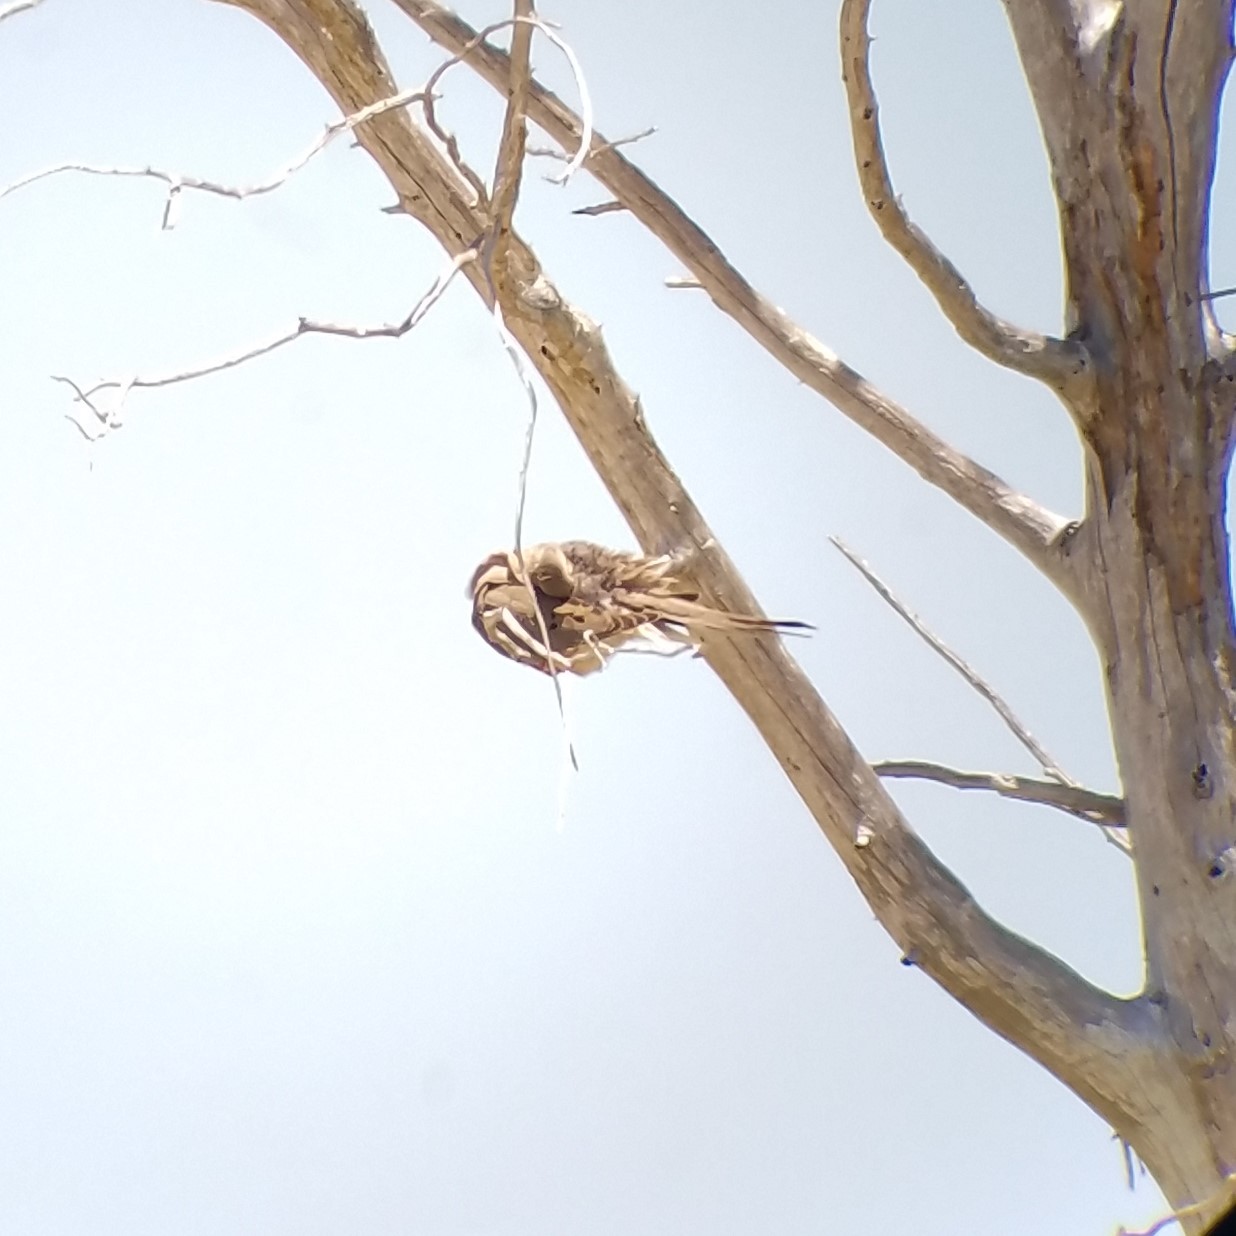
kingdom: Animalia
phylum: Chordata
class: Aves
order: Columbiformes
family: Columbidae
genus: Zenaida
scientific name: Zenaida macroura
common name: Mourning dove
